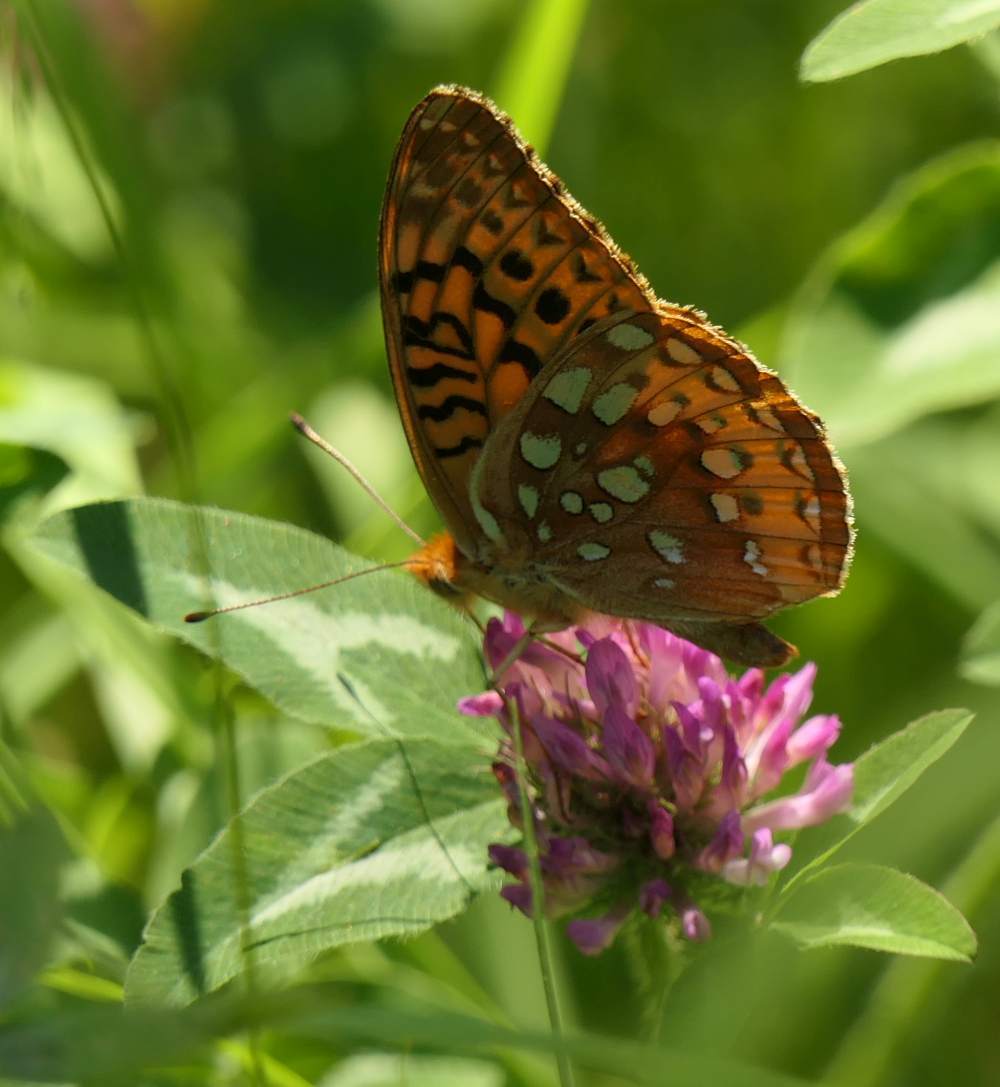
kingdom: Animalia
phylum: Arthropoda
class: Insecta
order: Lepidoptera
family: Nymphalidae
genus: Speyeria
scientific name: Speyeria cybele
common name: Great spangled fritillary
